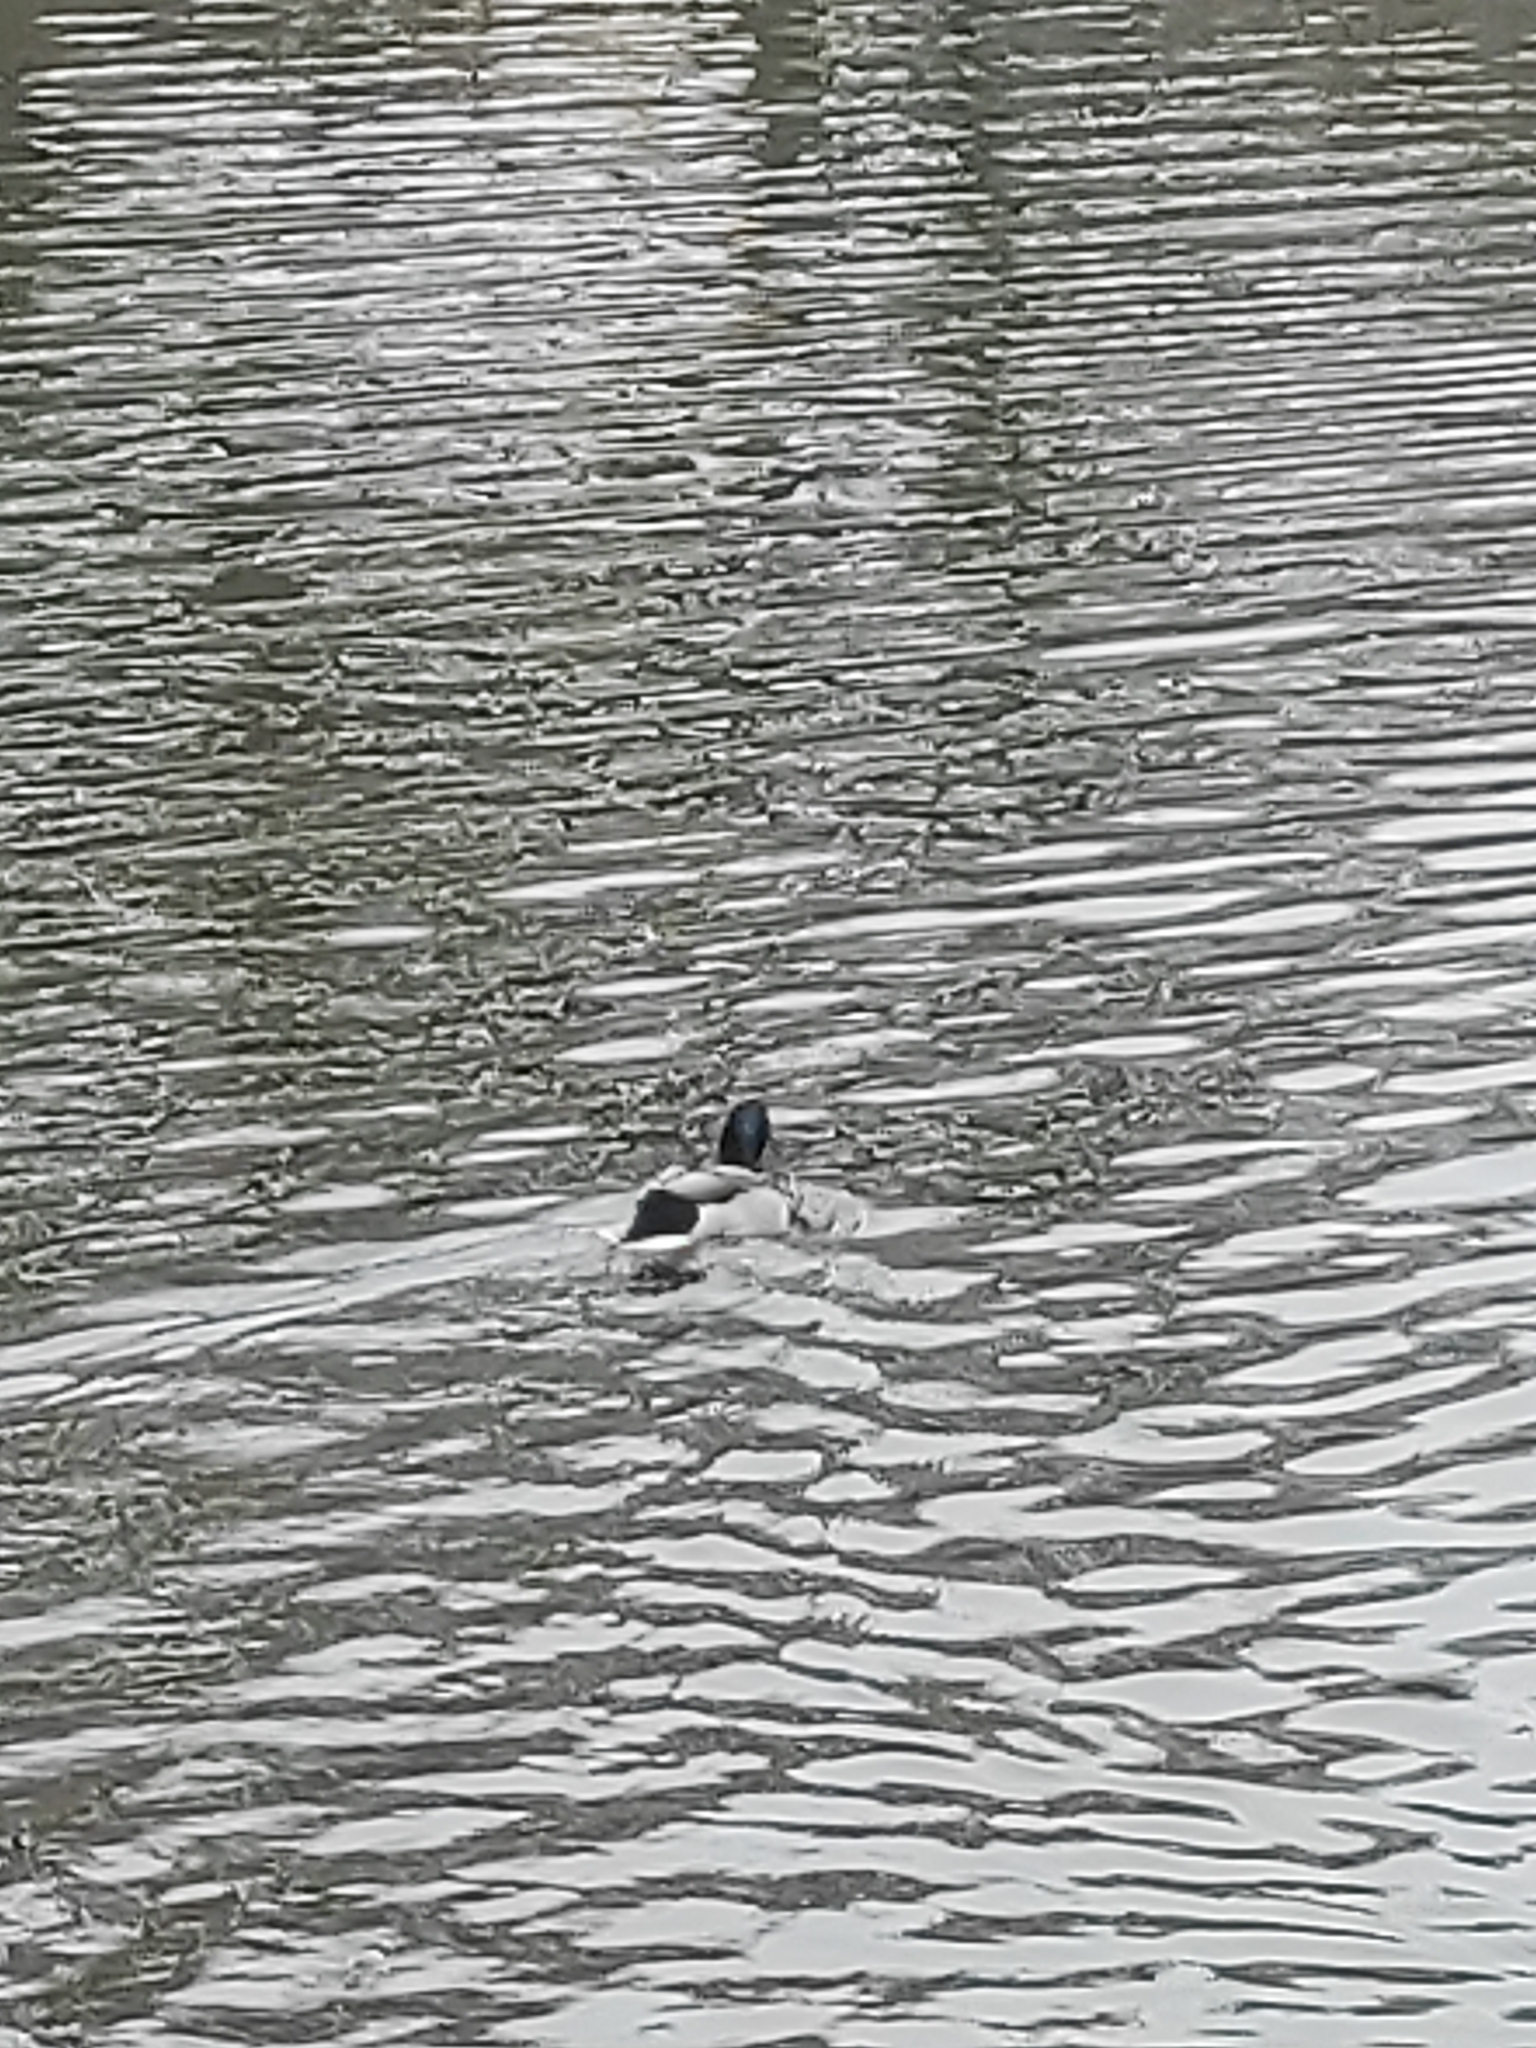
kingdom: Animalia
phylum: Chordata
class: Aves
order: Anseriformes
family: Anatidae
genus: Anas
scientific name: Anas platyrhynchos
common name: Mallard
